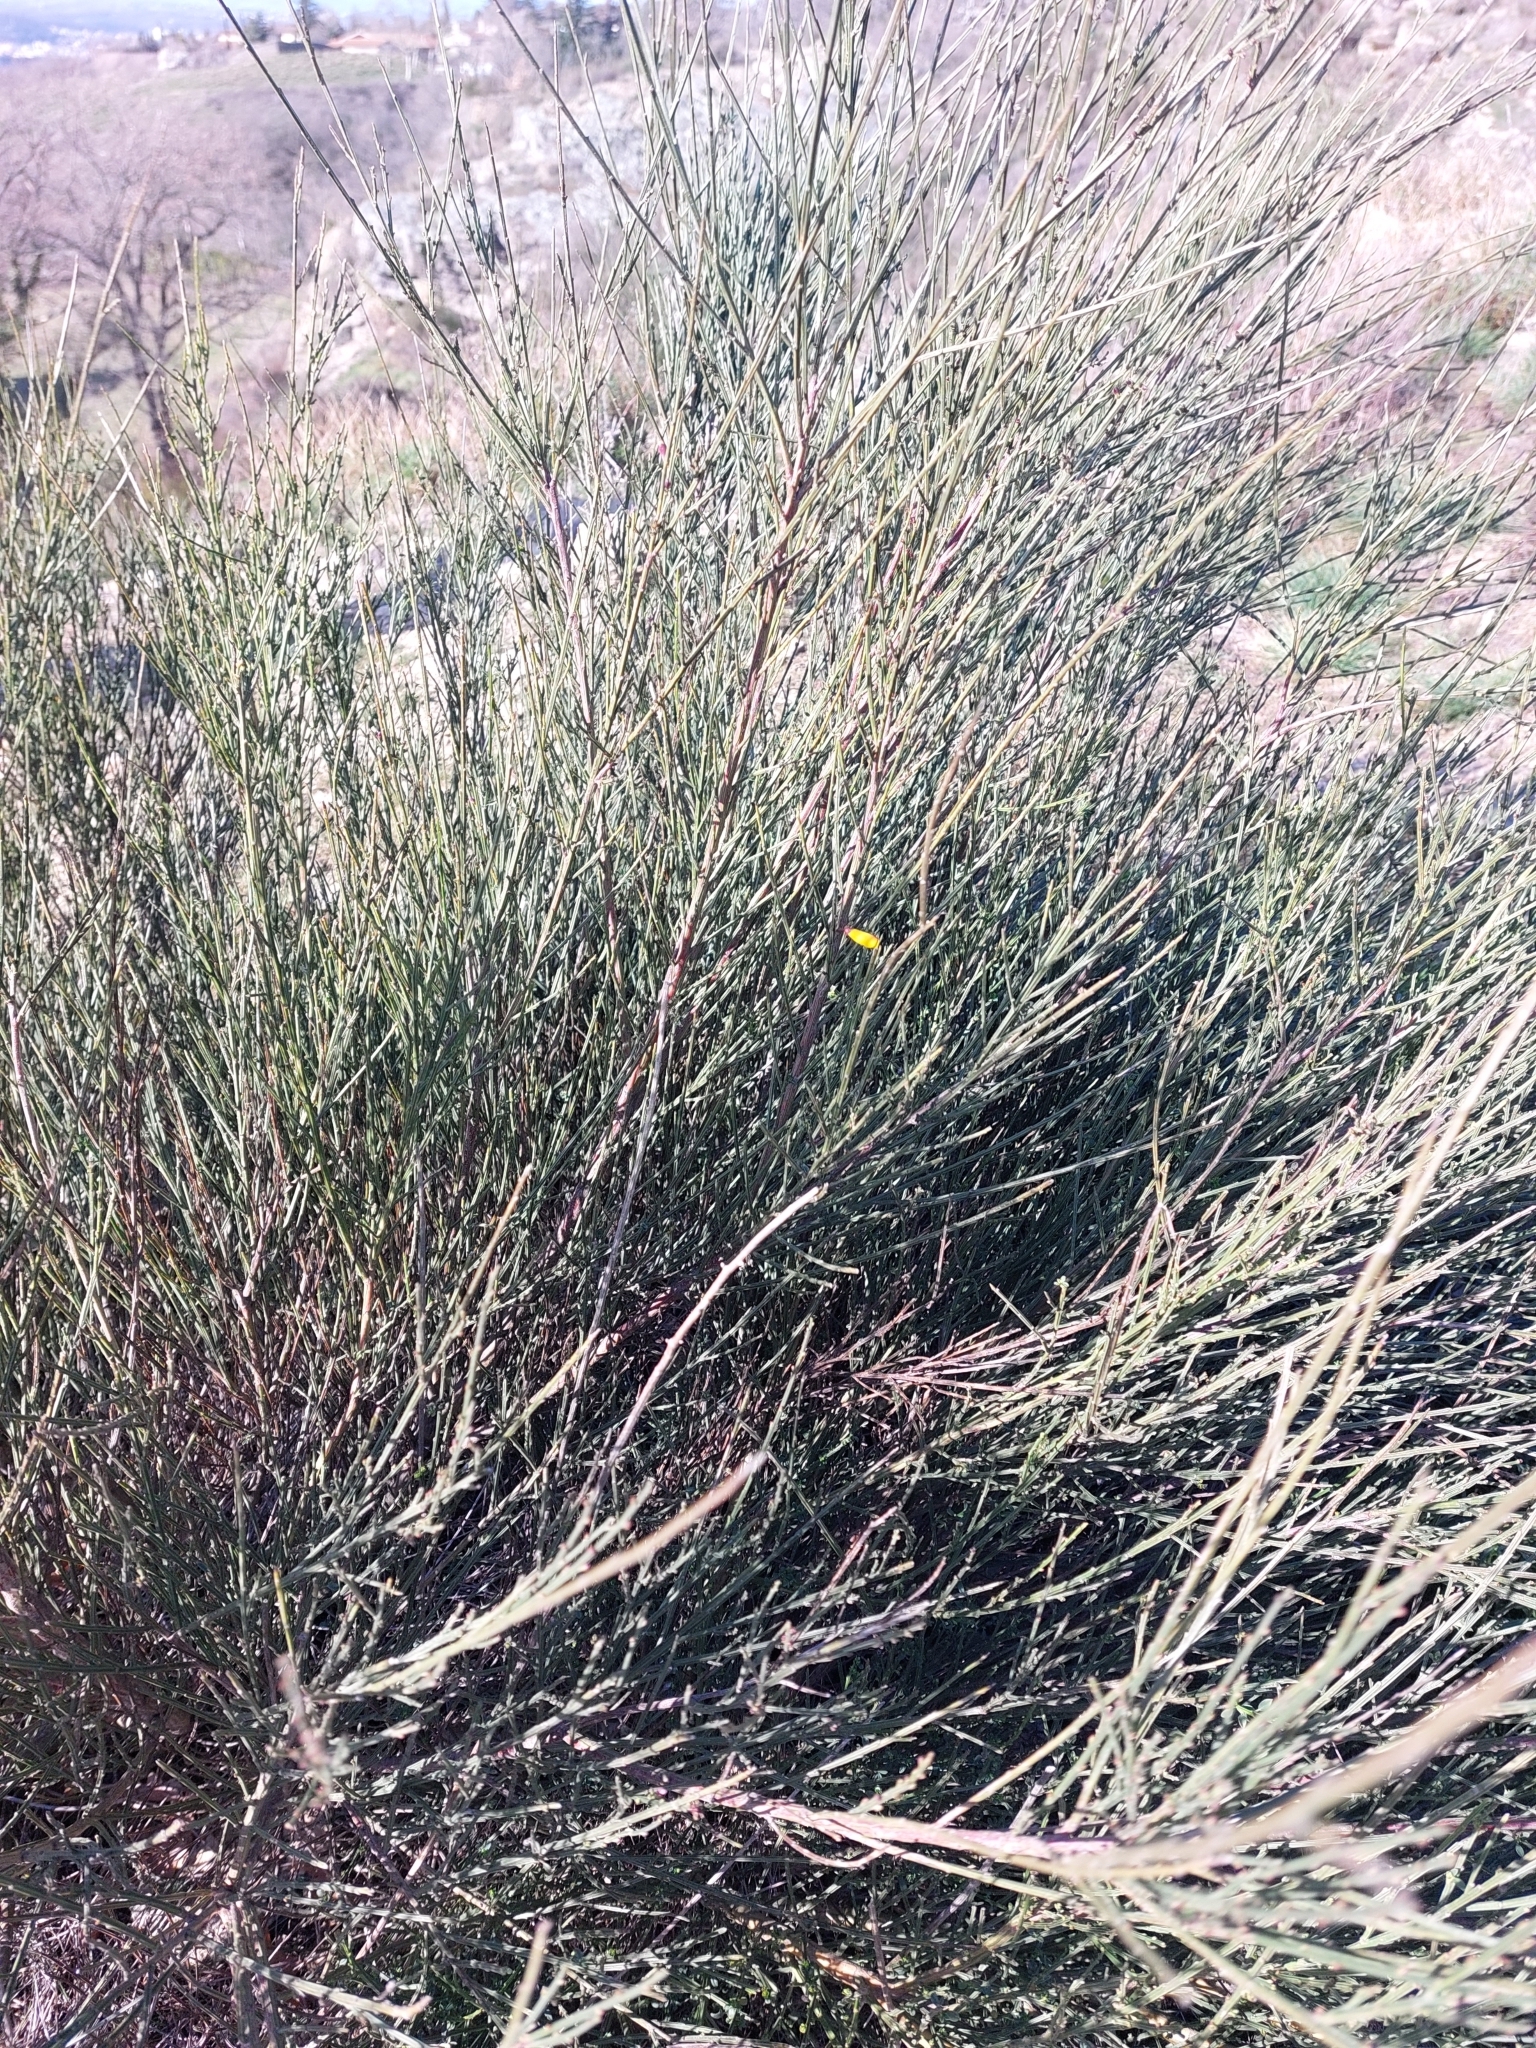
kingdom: Plantae
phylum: Tracheophyta
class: Magnoliopsida
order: Fabales
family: Fabaceae
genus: Cytisus
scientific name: Cytisus scoparius
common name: Scotch broom
